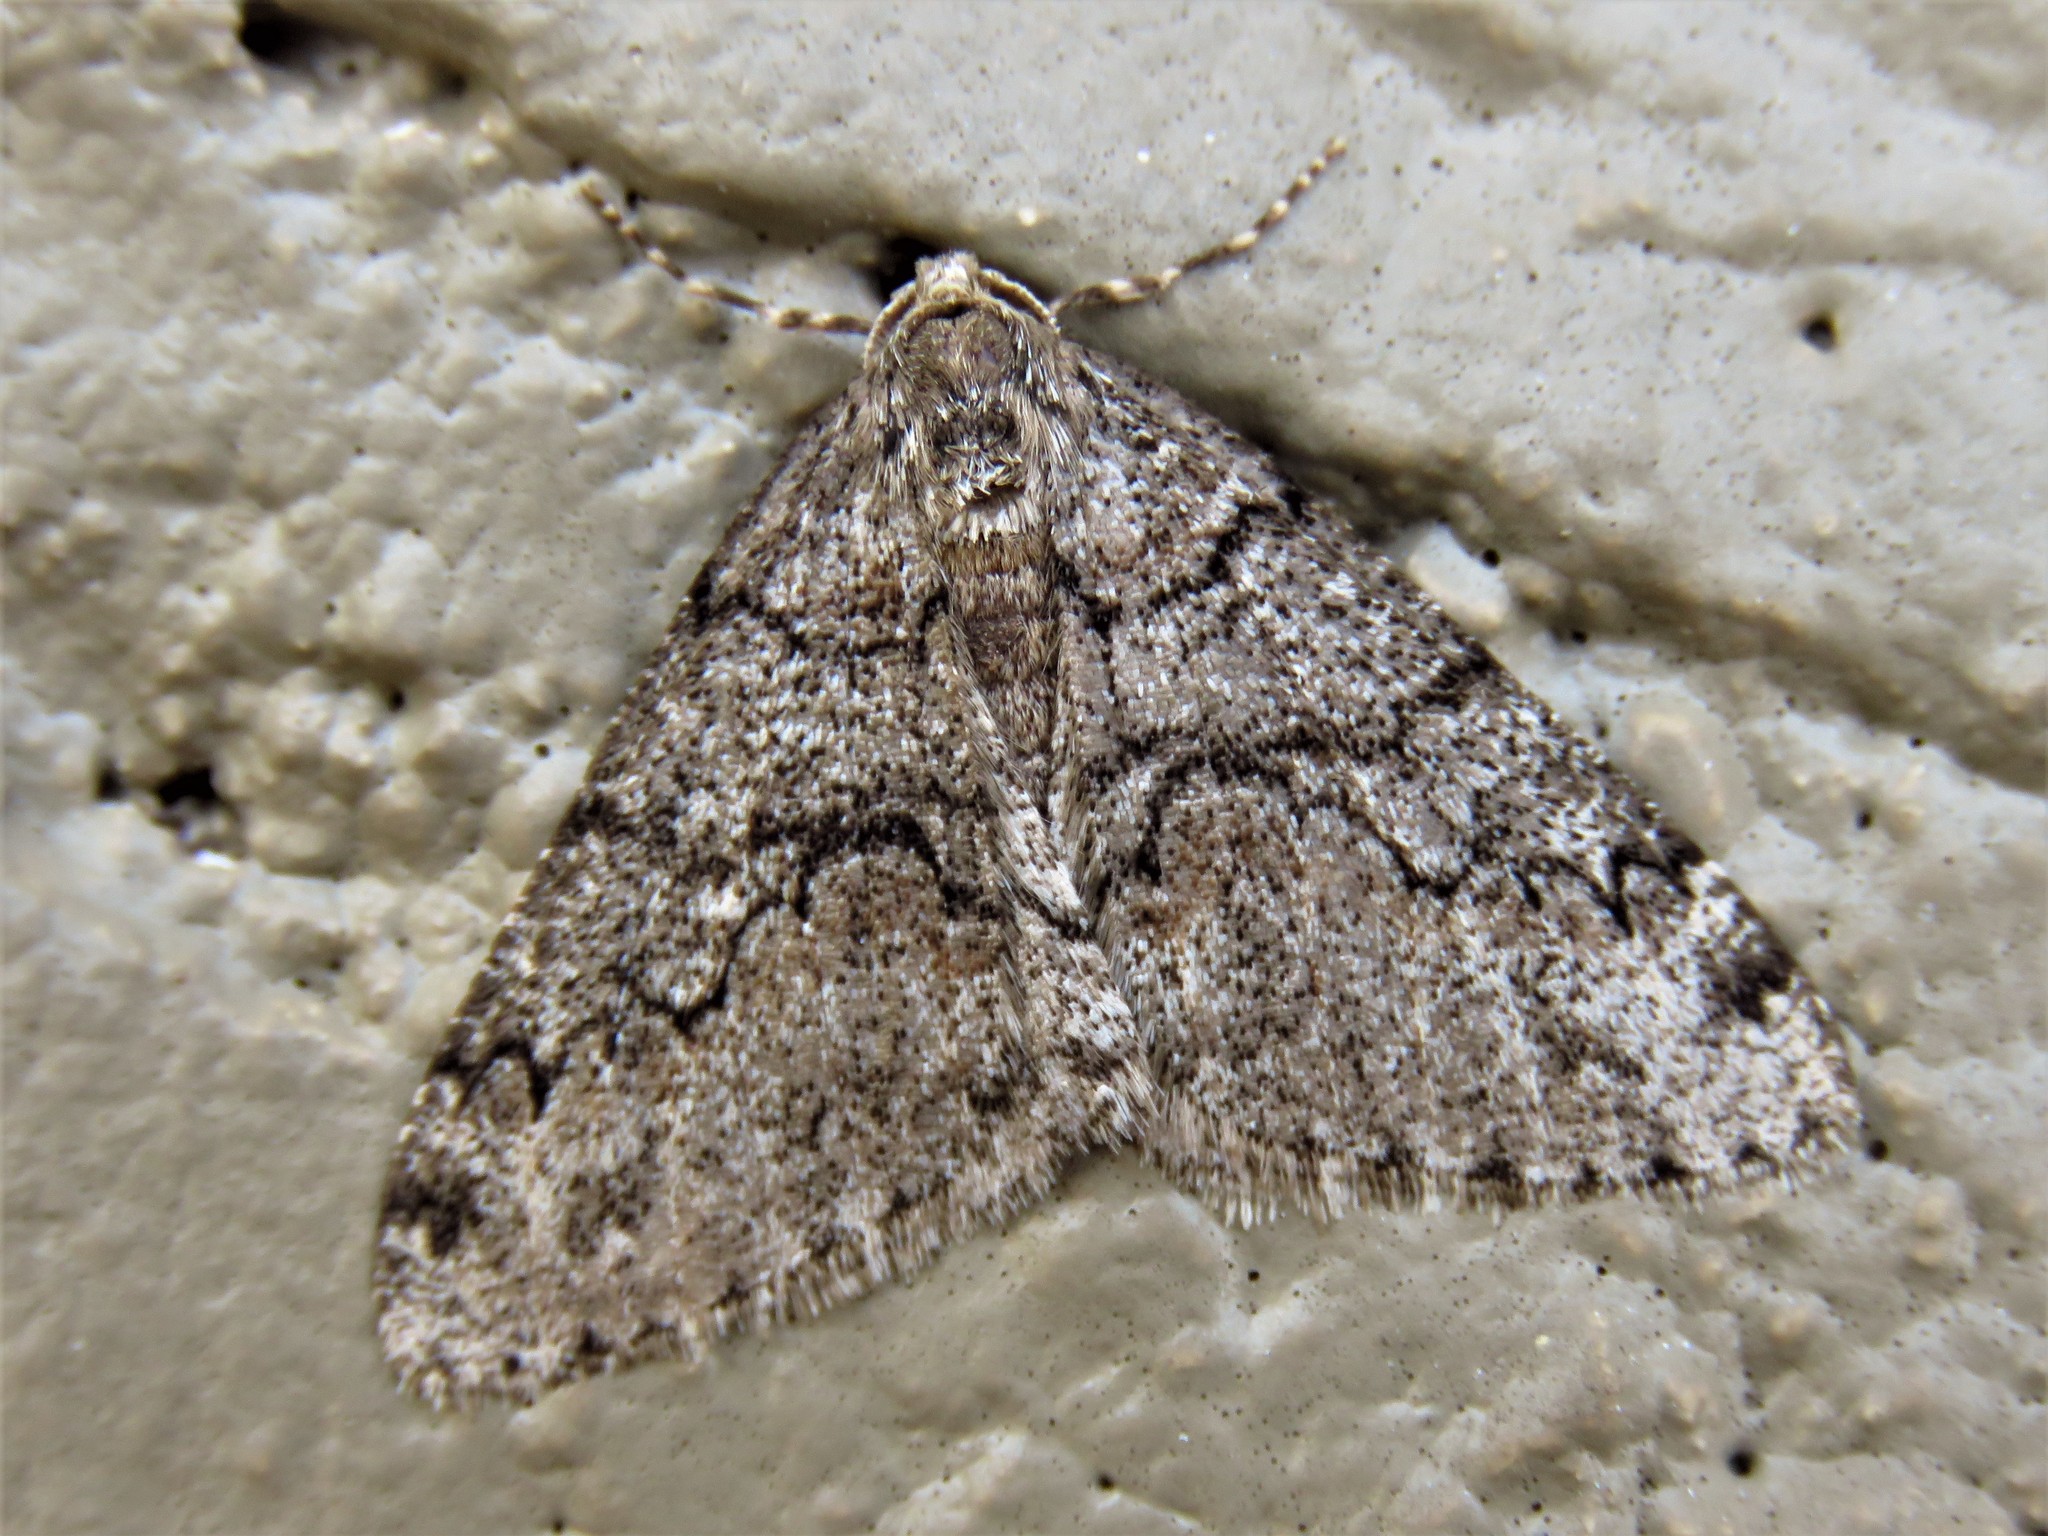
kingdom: Animalia
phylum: Arthropoda
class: Insecta
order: Lepidoptera
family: Geometridae
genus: Phigalia
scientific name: Phigalia denticulata
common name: Toothed phigalia
